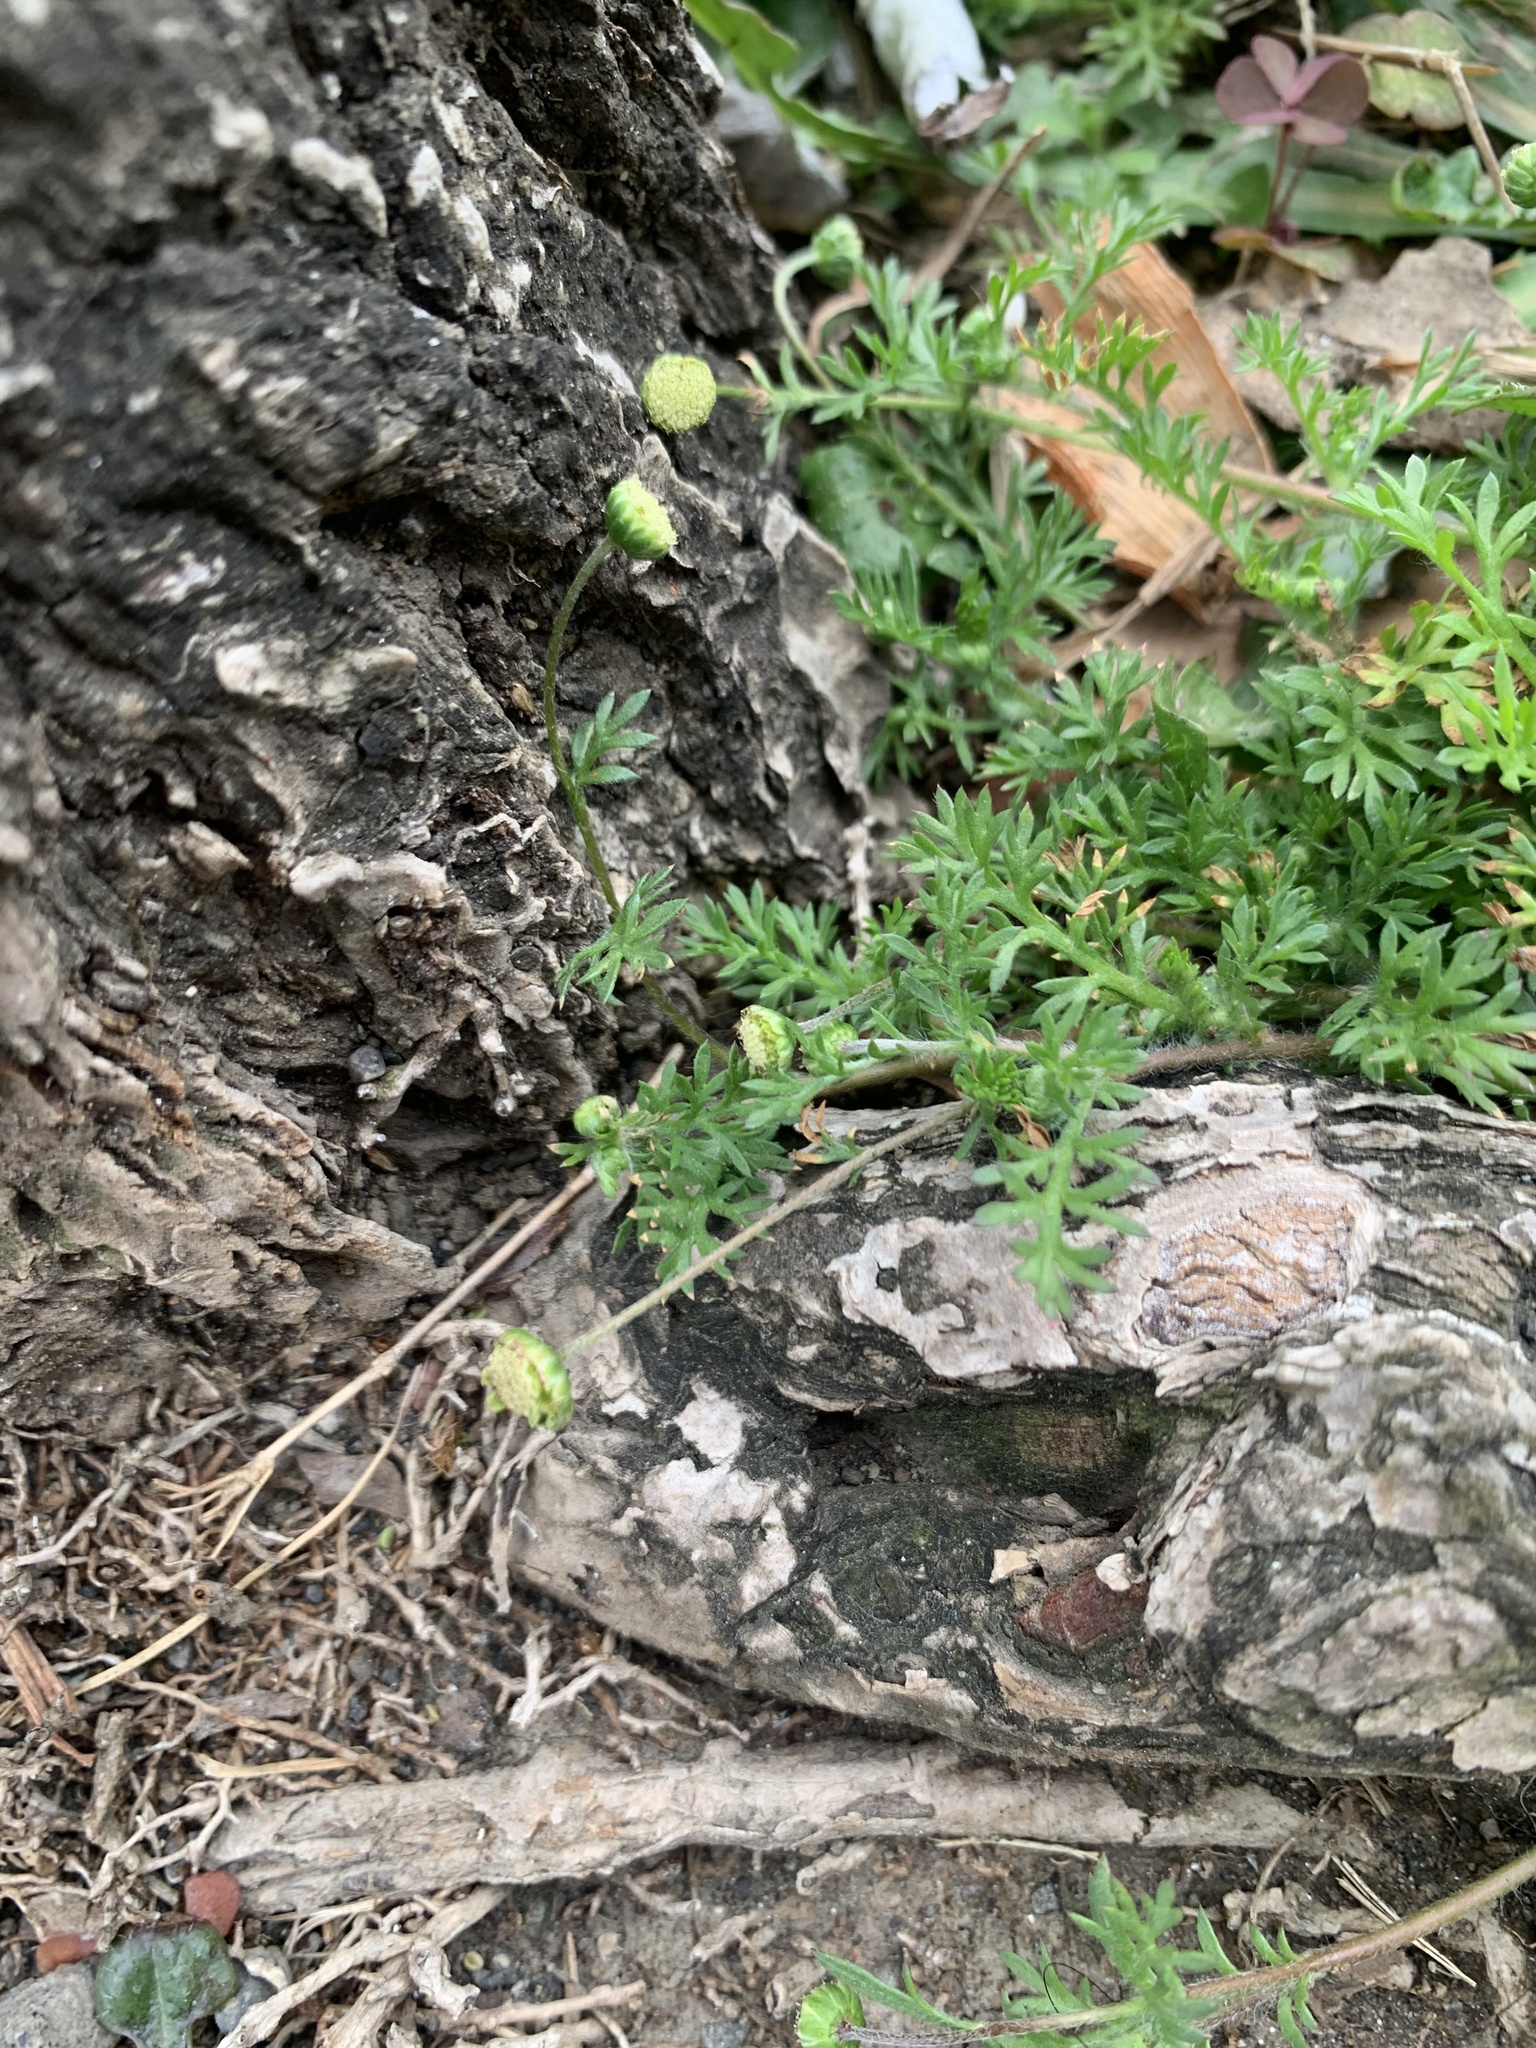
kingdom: Plantae
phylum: Tracheophyta
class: Magnoliopsida
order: Asterales
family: Asteraceae
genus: Cotula
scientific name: Cotula australis
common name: Australian waterbuttons
